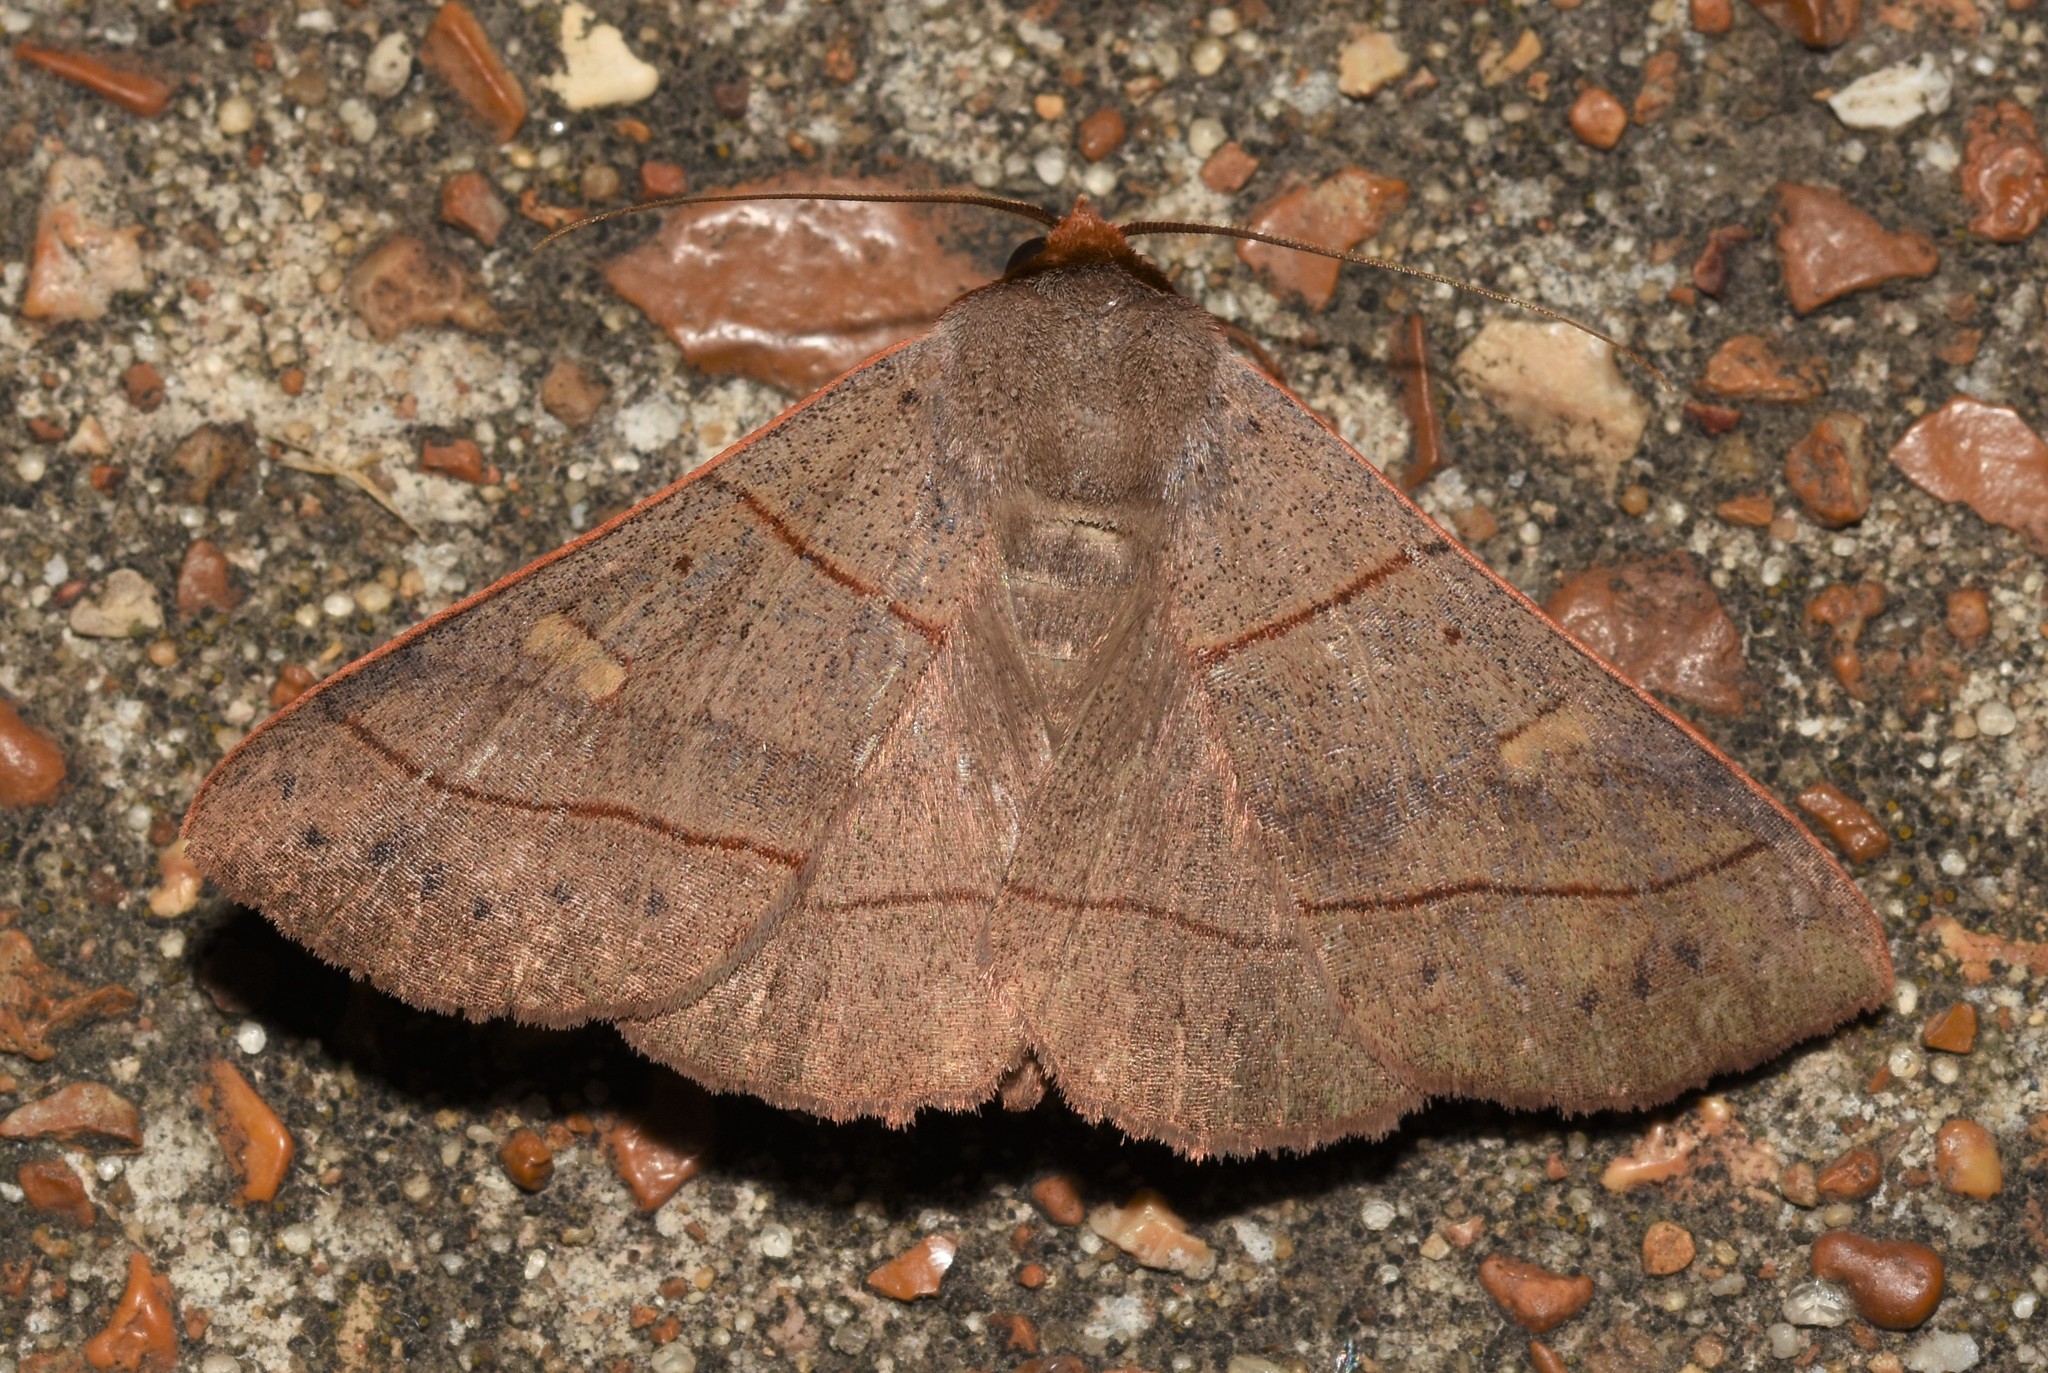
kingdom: Animalia
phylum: Arthropoda
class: Insecta
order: Lepidoptera
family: Erebidae
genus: Panopoda
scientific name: Panopoda rufimargo
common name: Red-lined panopoda moth
